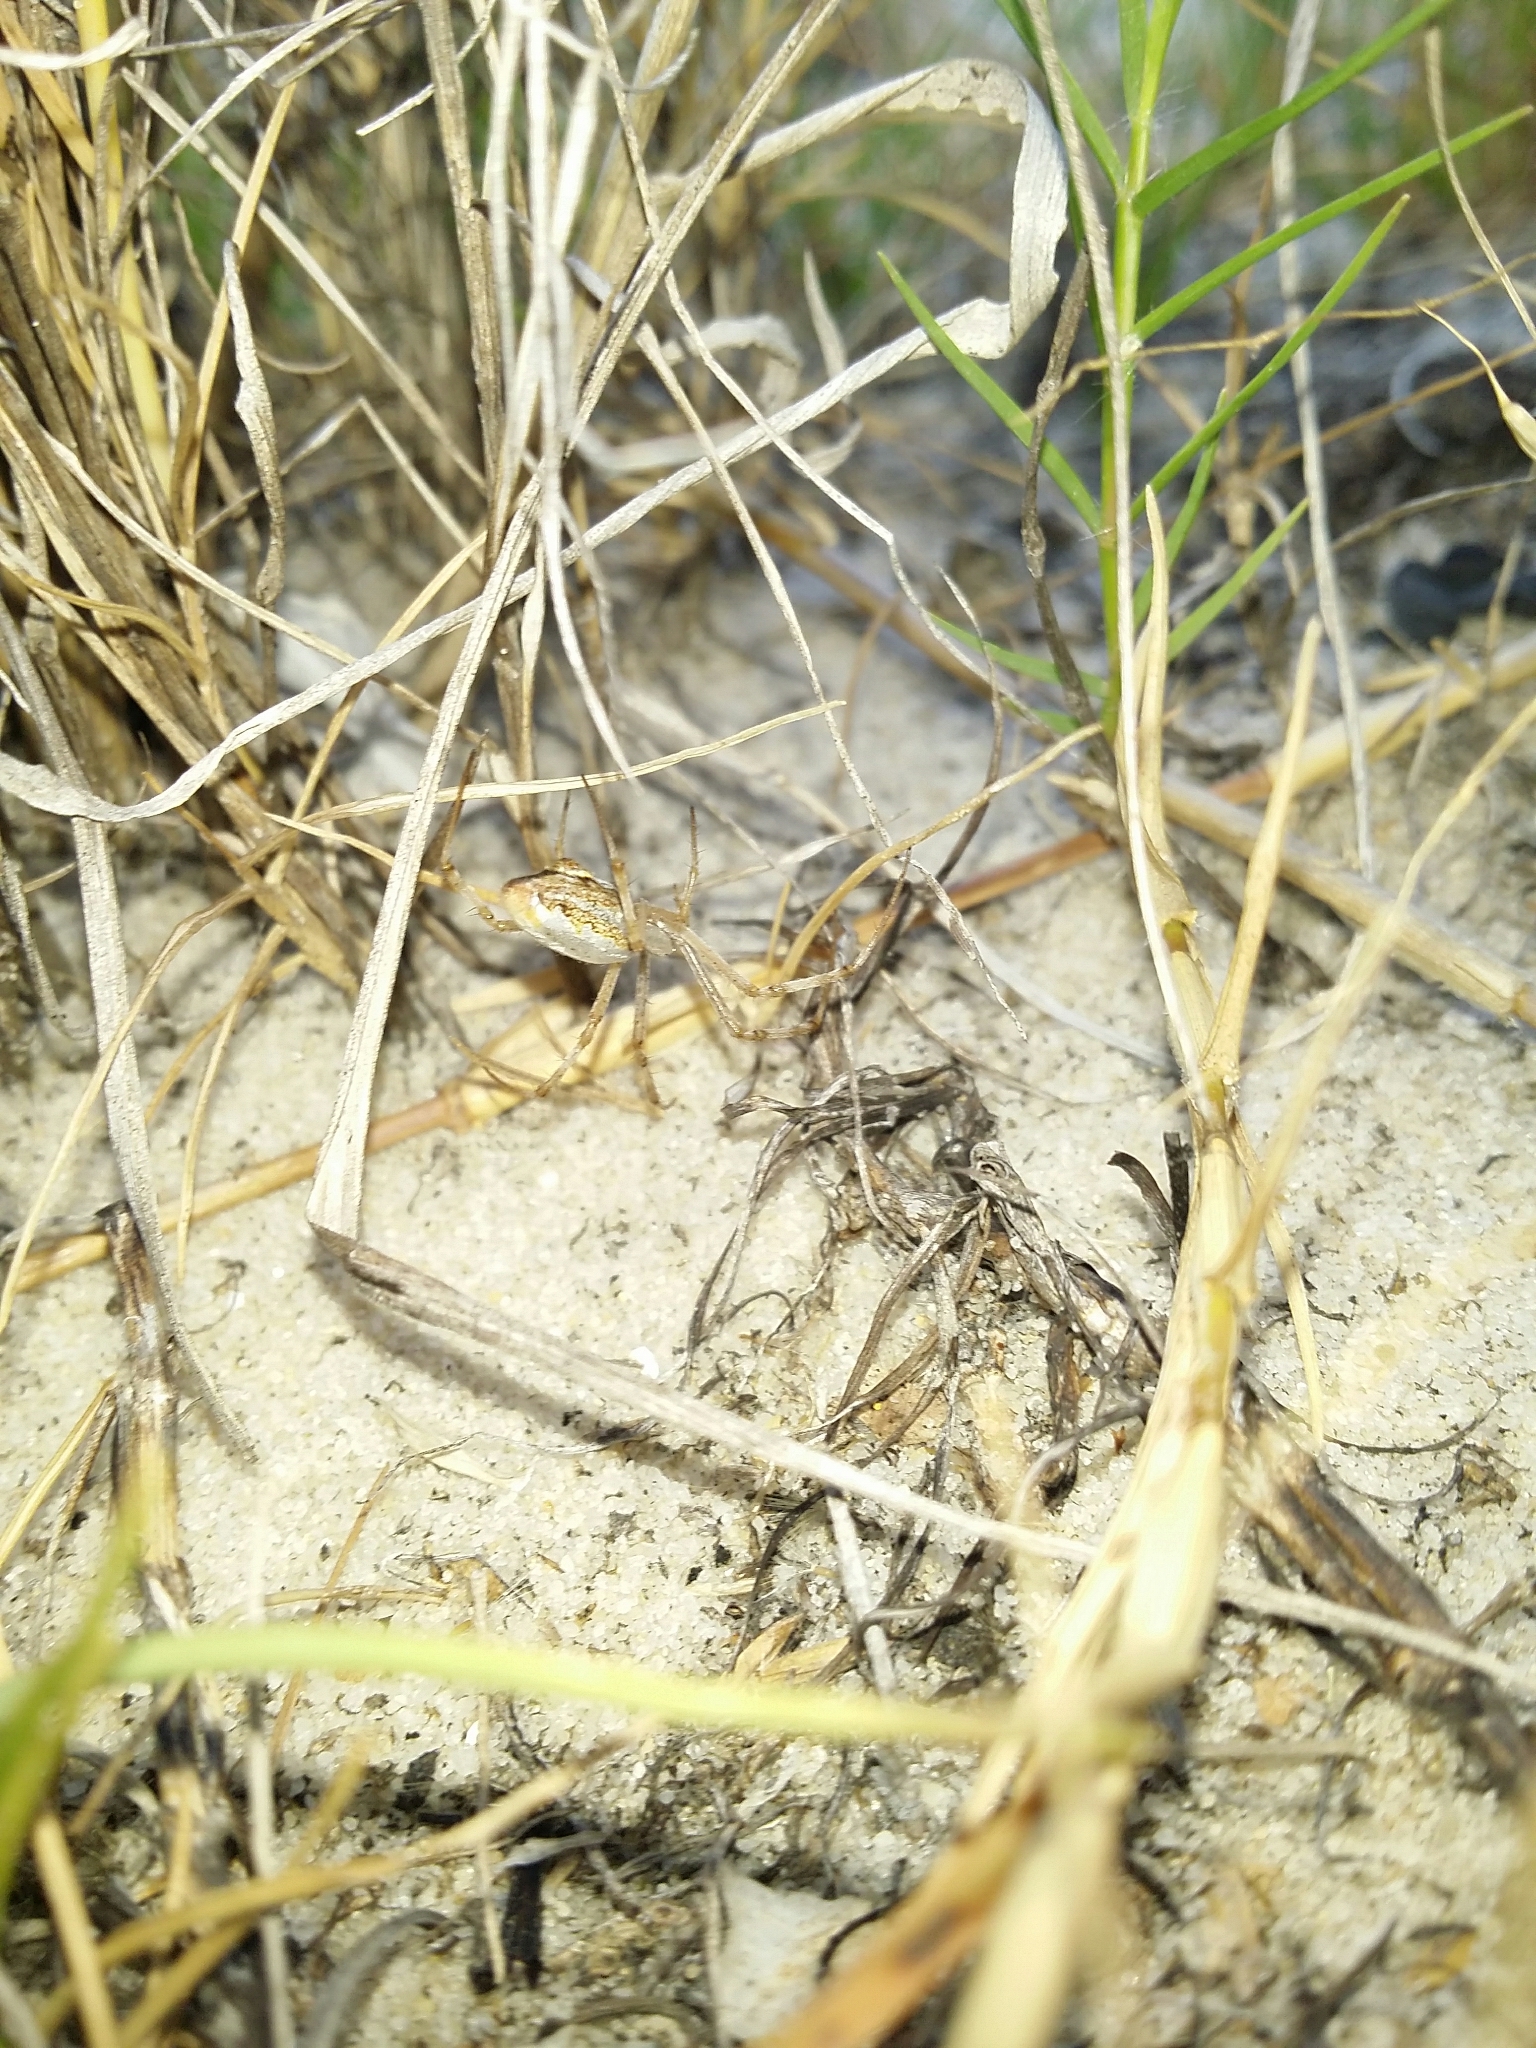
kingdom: Animalia
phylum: Arthropoda
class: Arachnida
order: Araneae
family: Araneidae
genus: Argiope
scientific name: Argiope protensa
